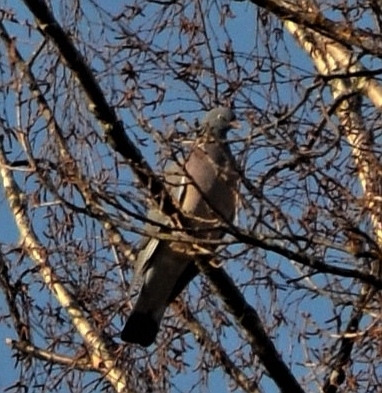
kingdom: Animalia
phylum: Chordata
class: Aves
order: Columbiformes
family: Columbidae
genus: Columba
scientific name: Columba palumbus
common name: Common wood pigeon
